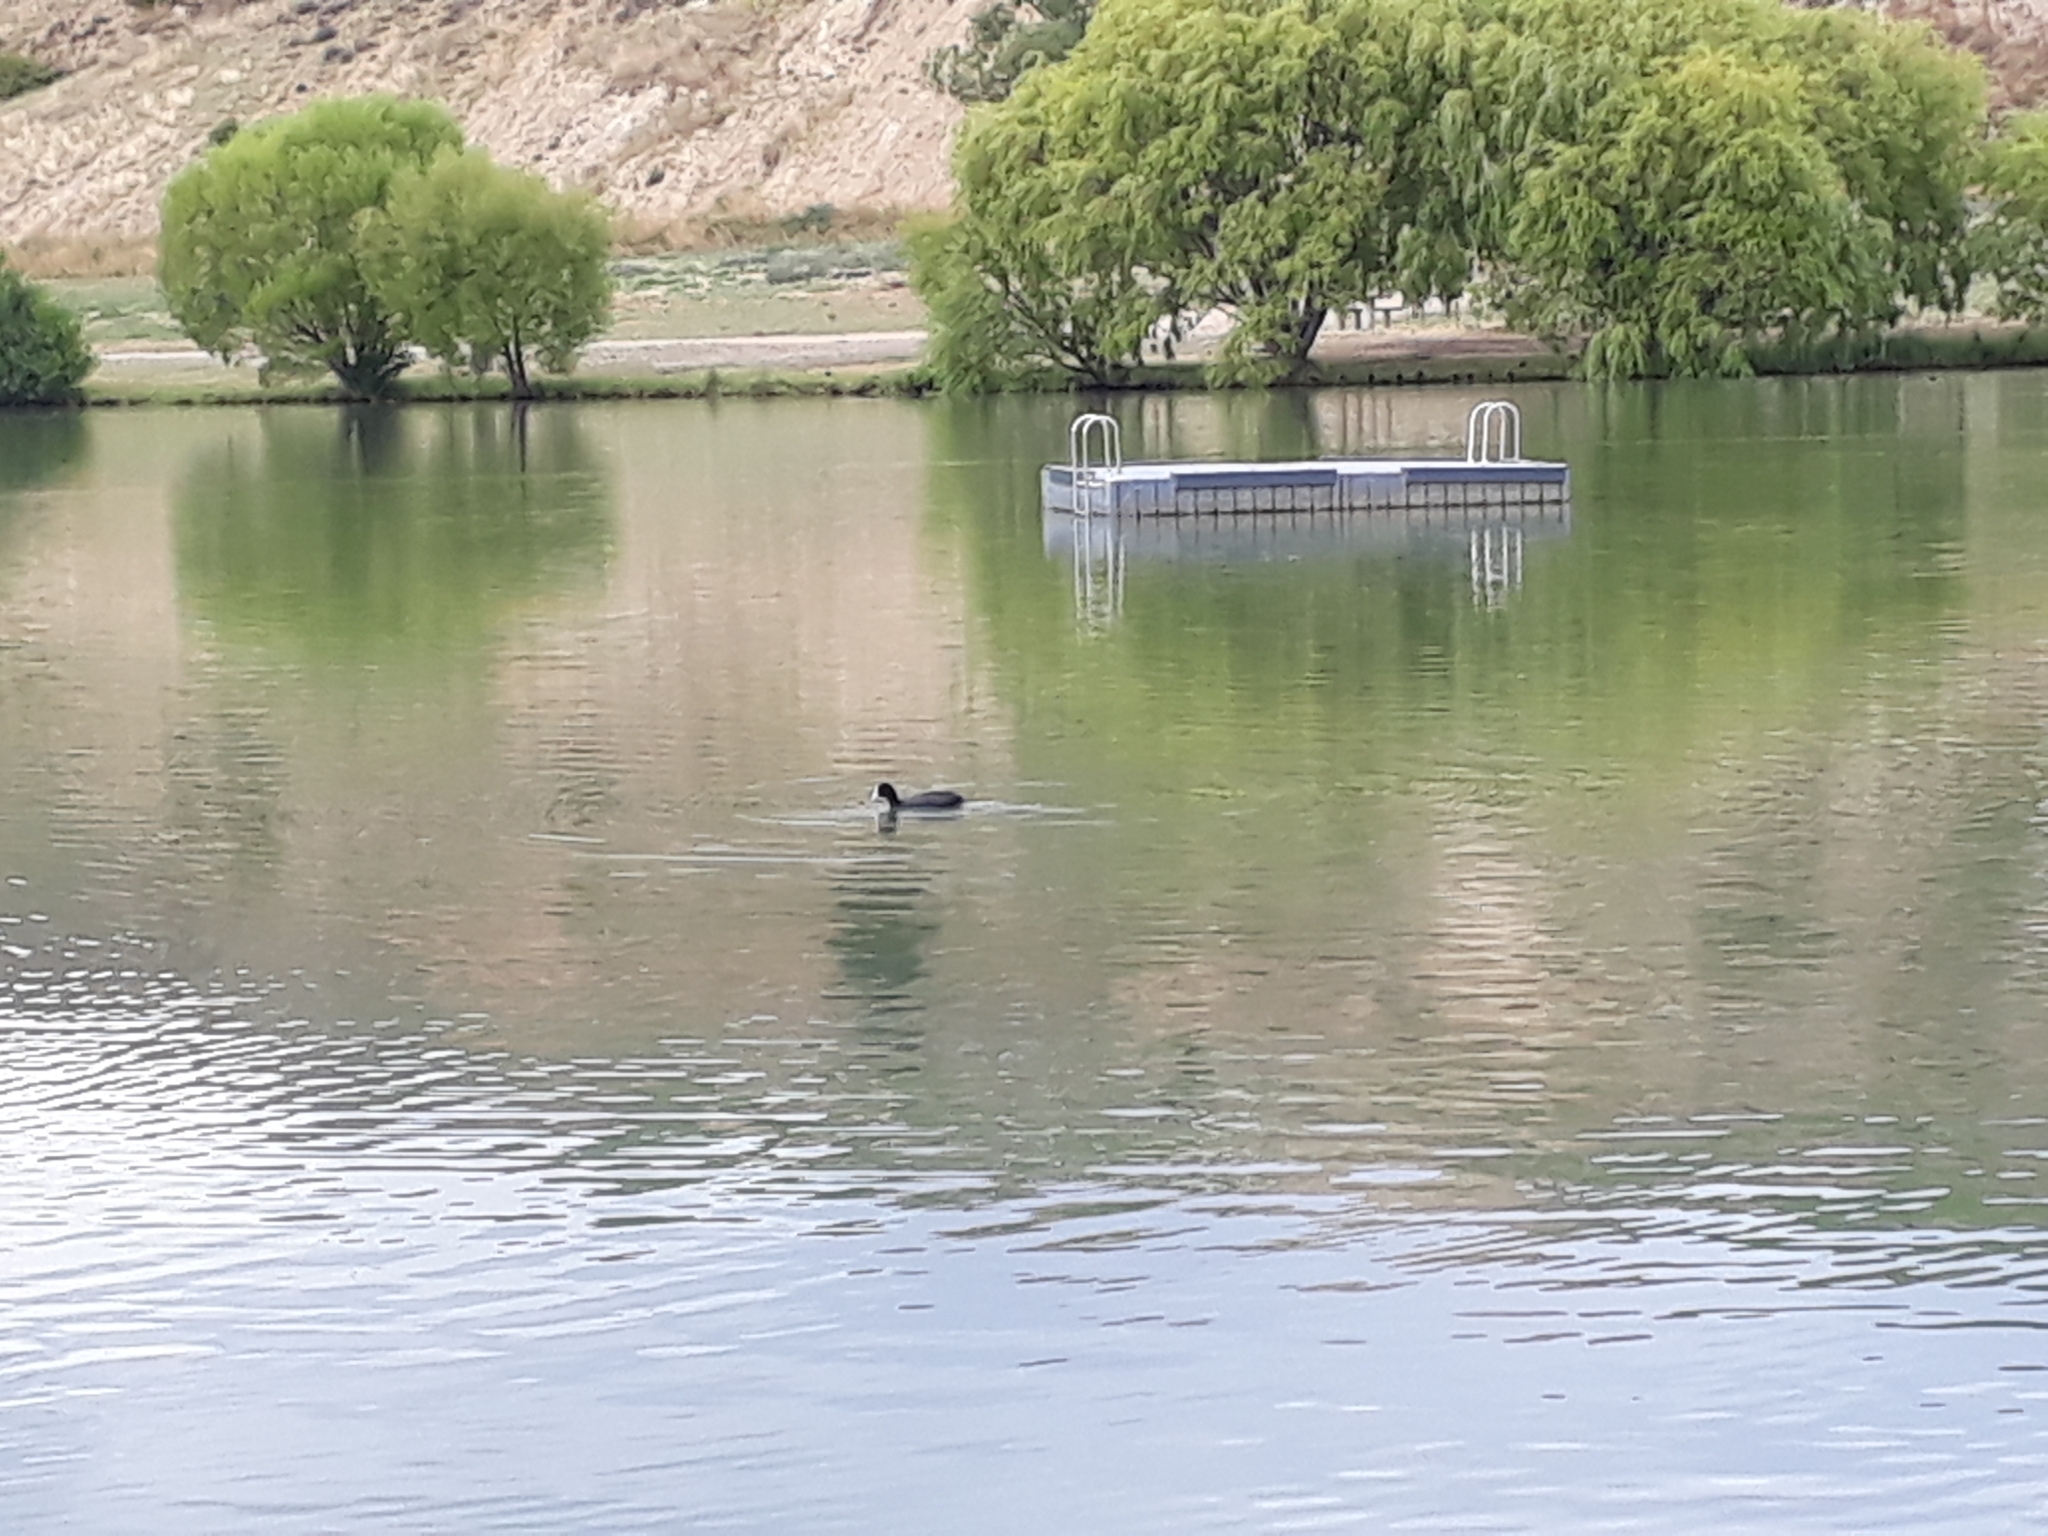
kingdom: Animalia
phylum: Chordata
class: Aves
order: Gruiformes
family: Rallidae
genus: Fulica
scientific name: Fulica atra
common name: Eurasian coot
